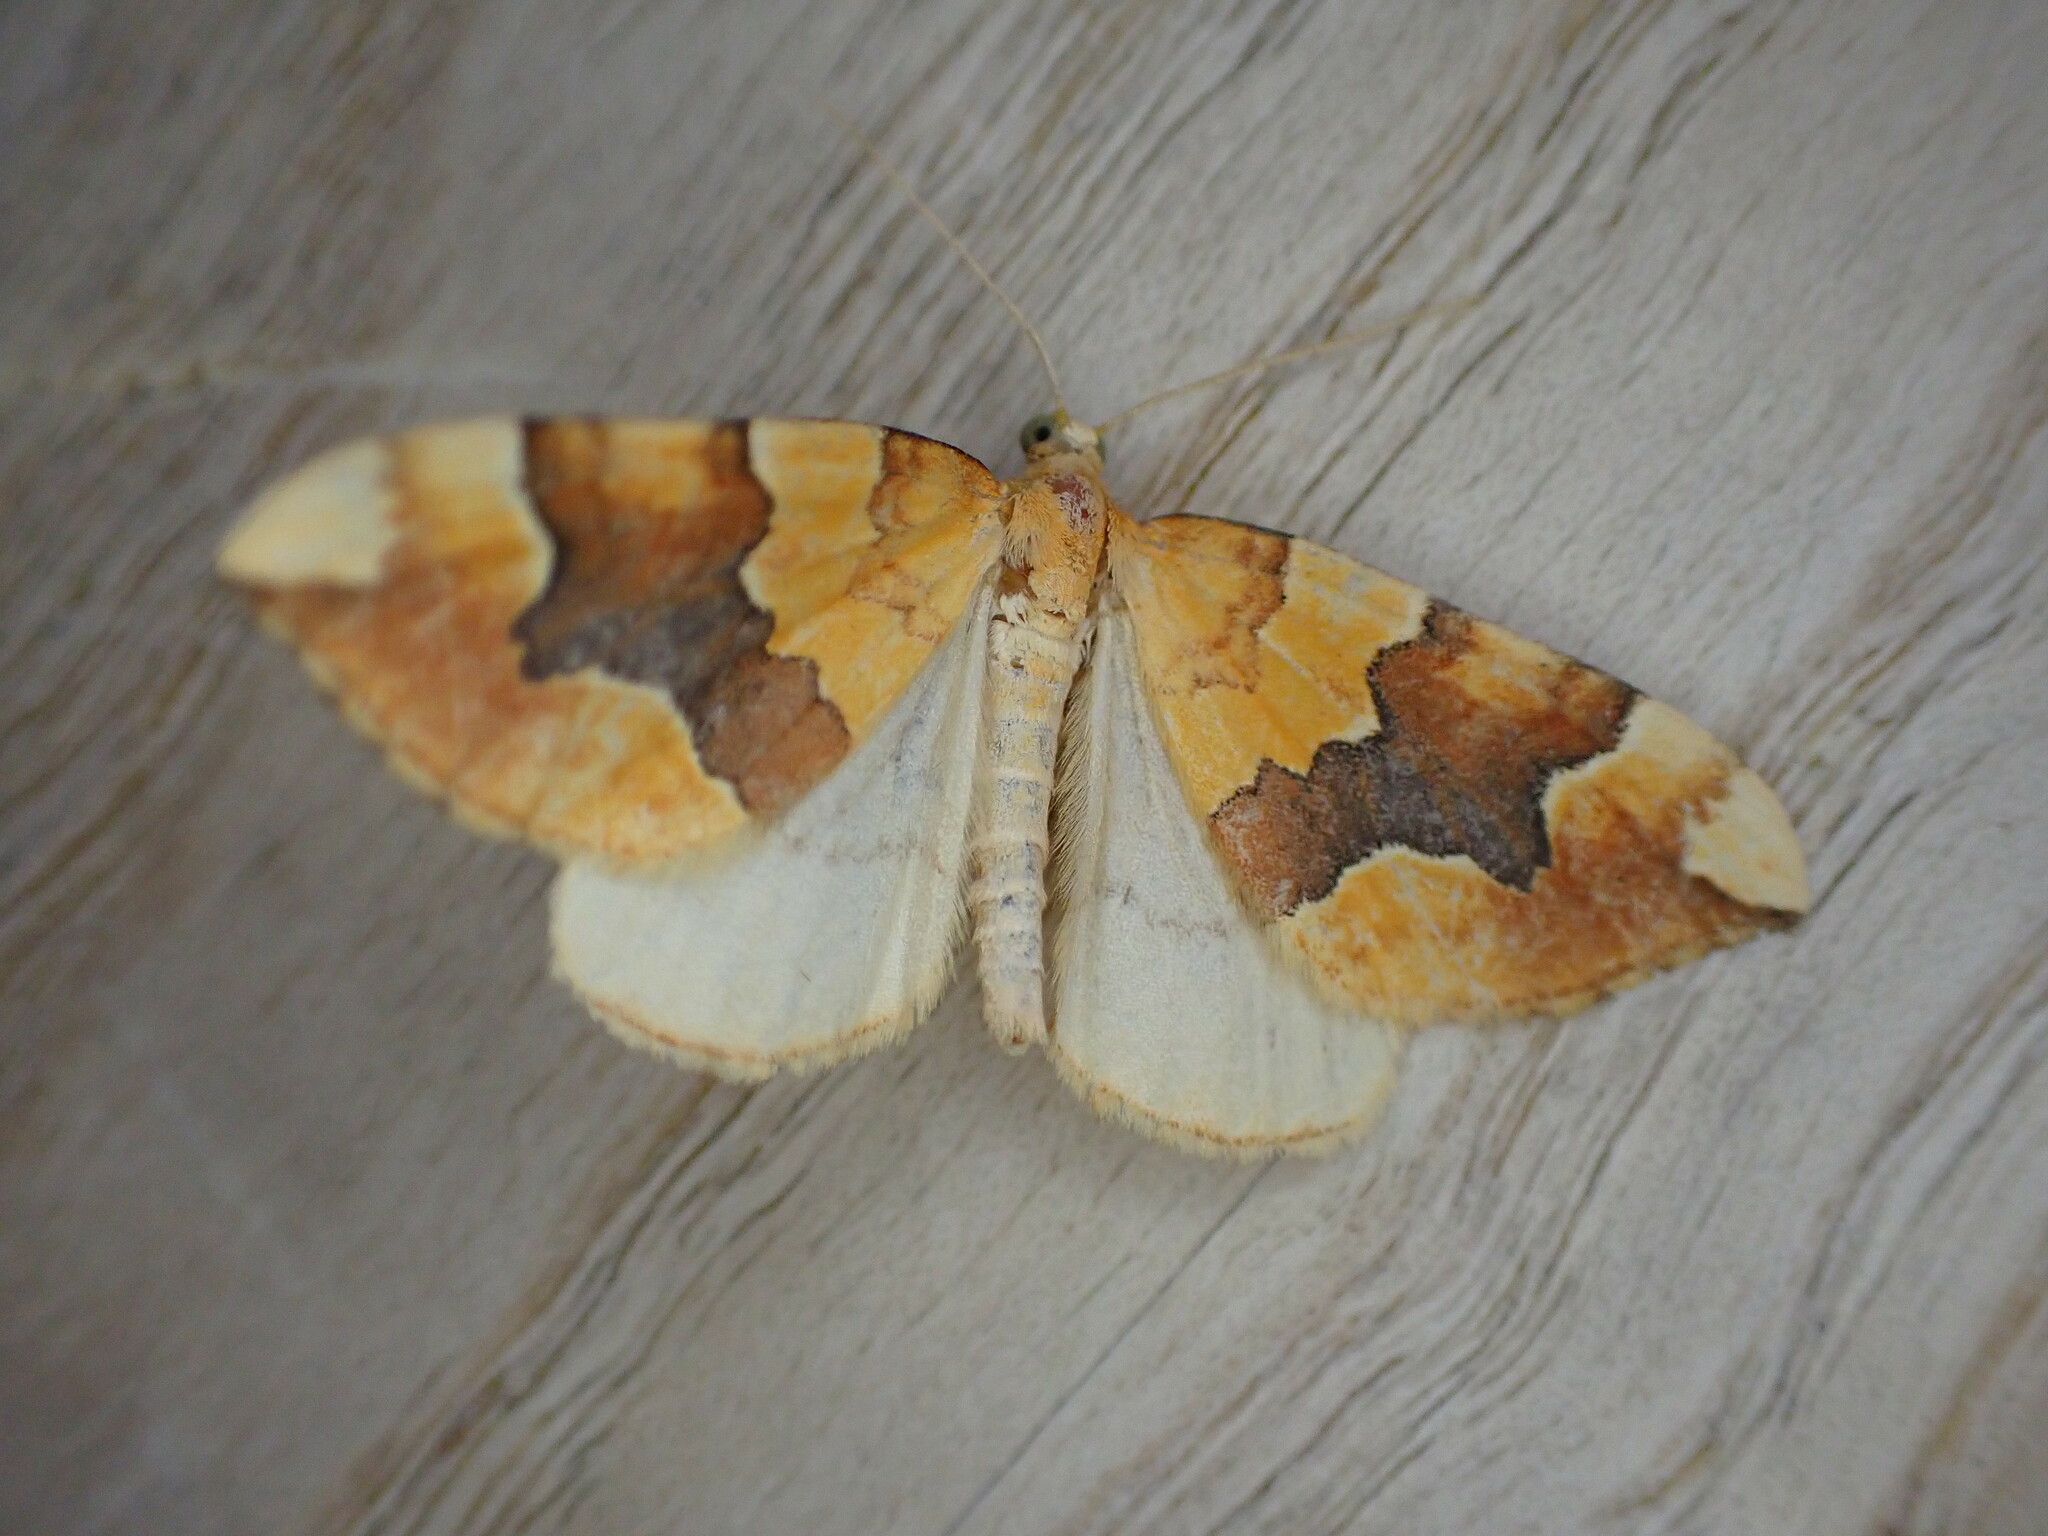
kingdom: Animalia
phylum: Arthropoda
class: Insecta
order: Lepidoptera
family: Geometridae
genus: Cidaria
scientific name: Cidaria fulvata
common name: Barred yellow
